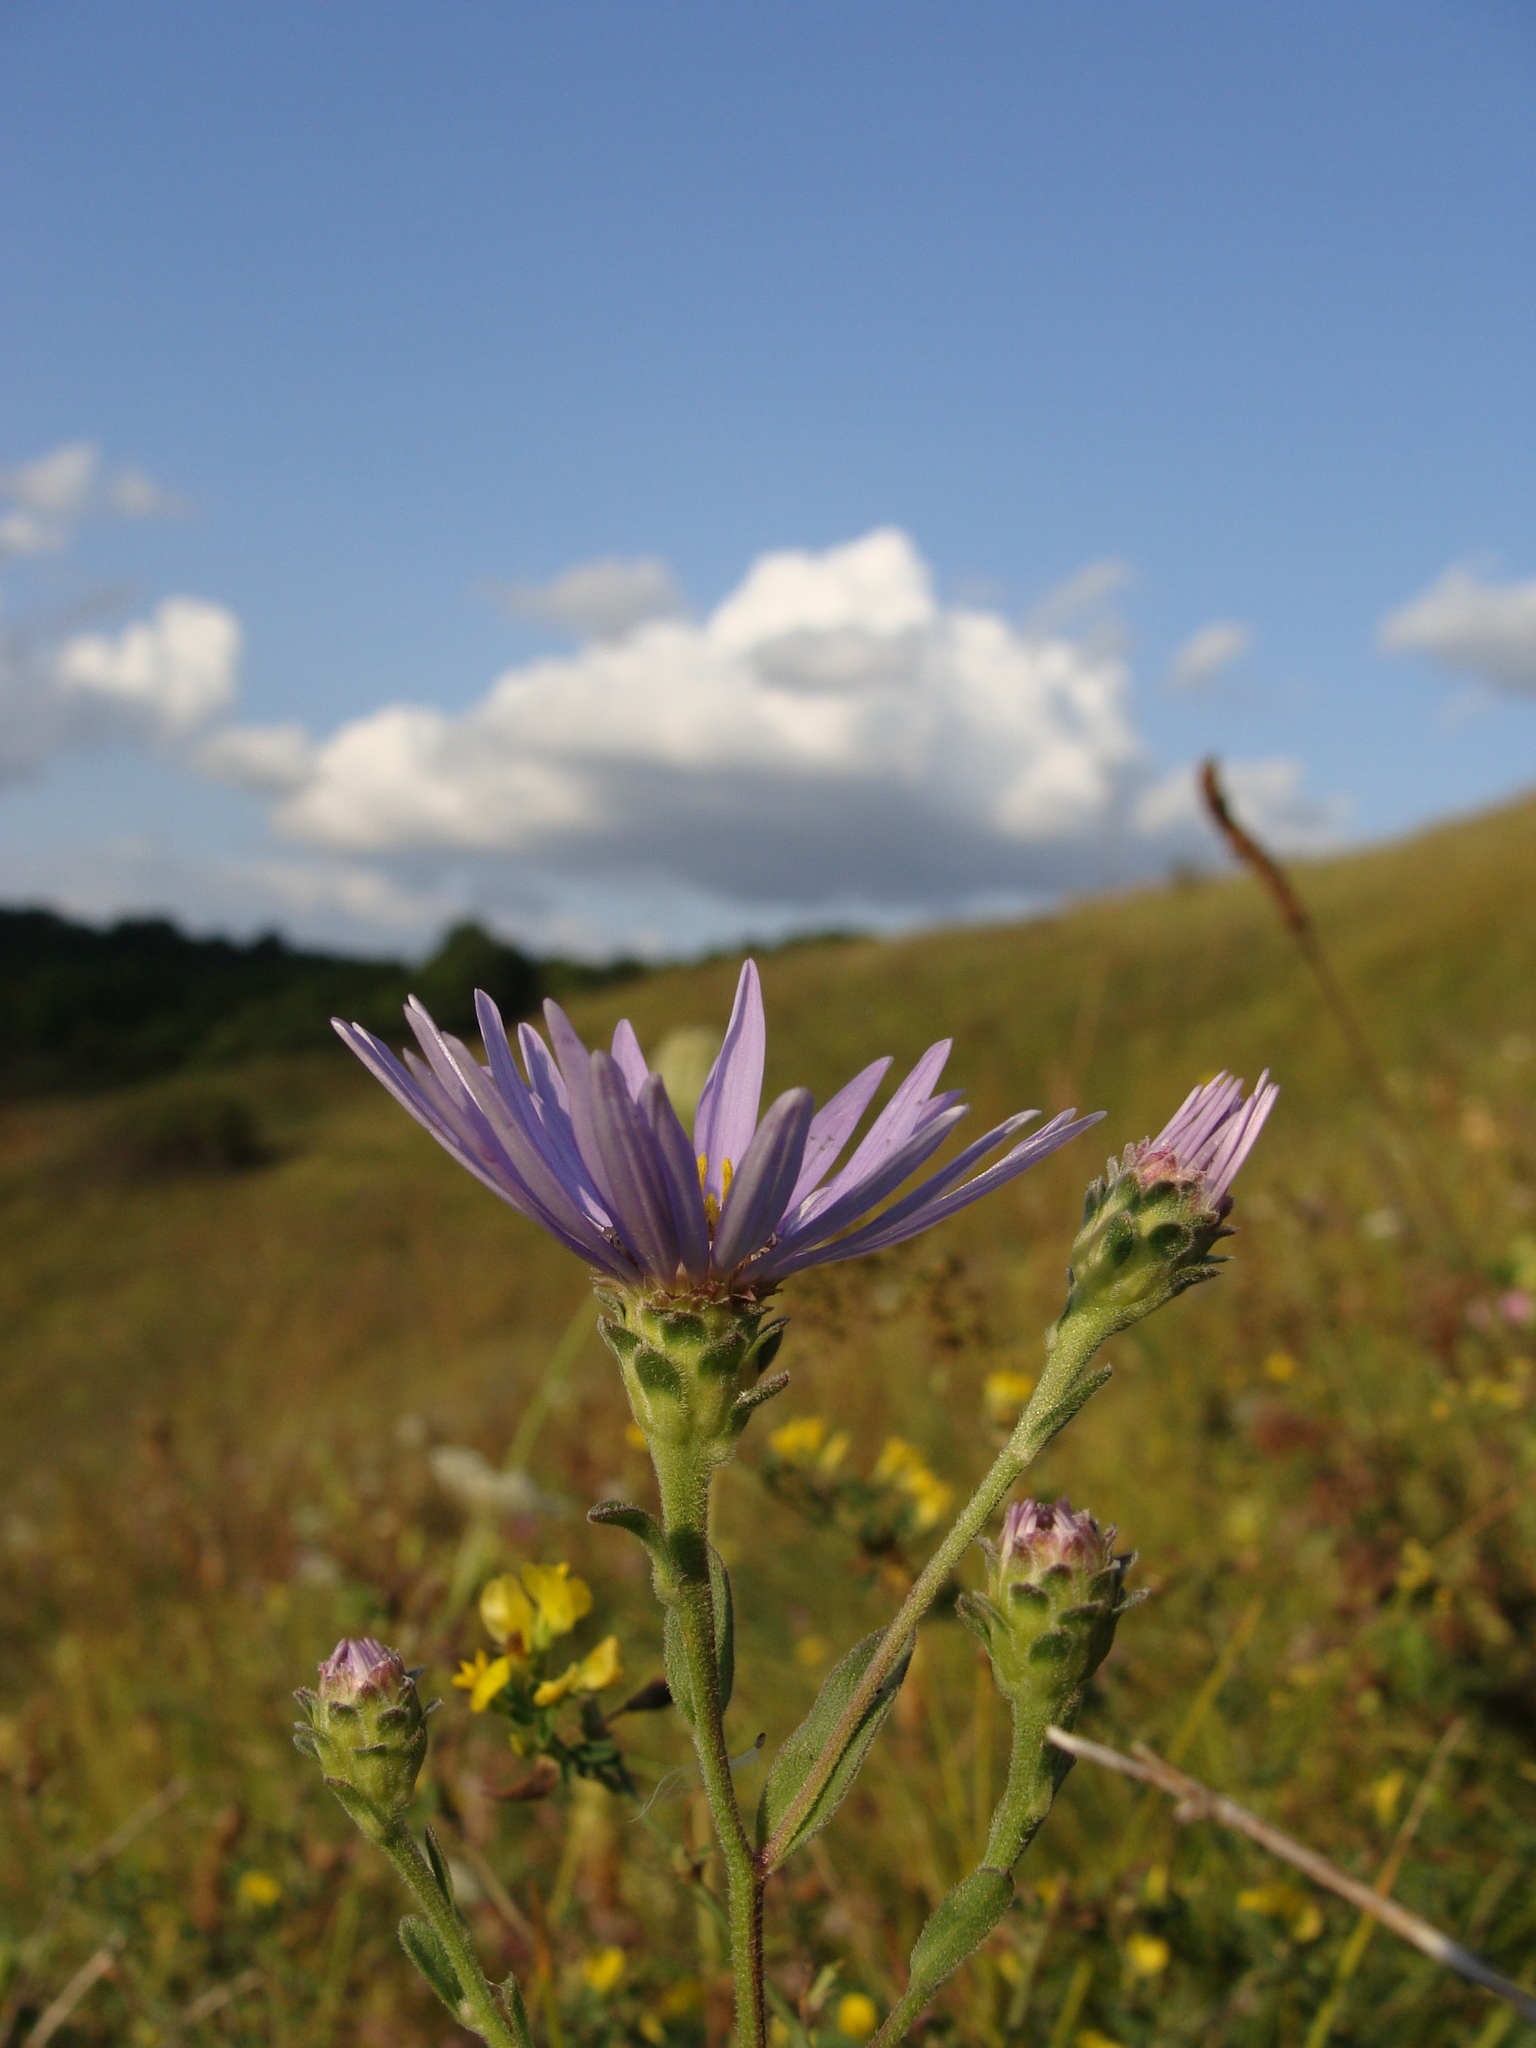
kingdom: Plantae
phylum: Tracheophyta
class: Magnoliopsida
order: Asterales
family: Asteraceae
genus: Aster
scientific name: Aster amellus
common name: European michaelmas daisy
